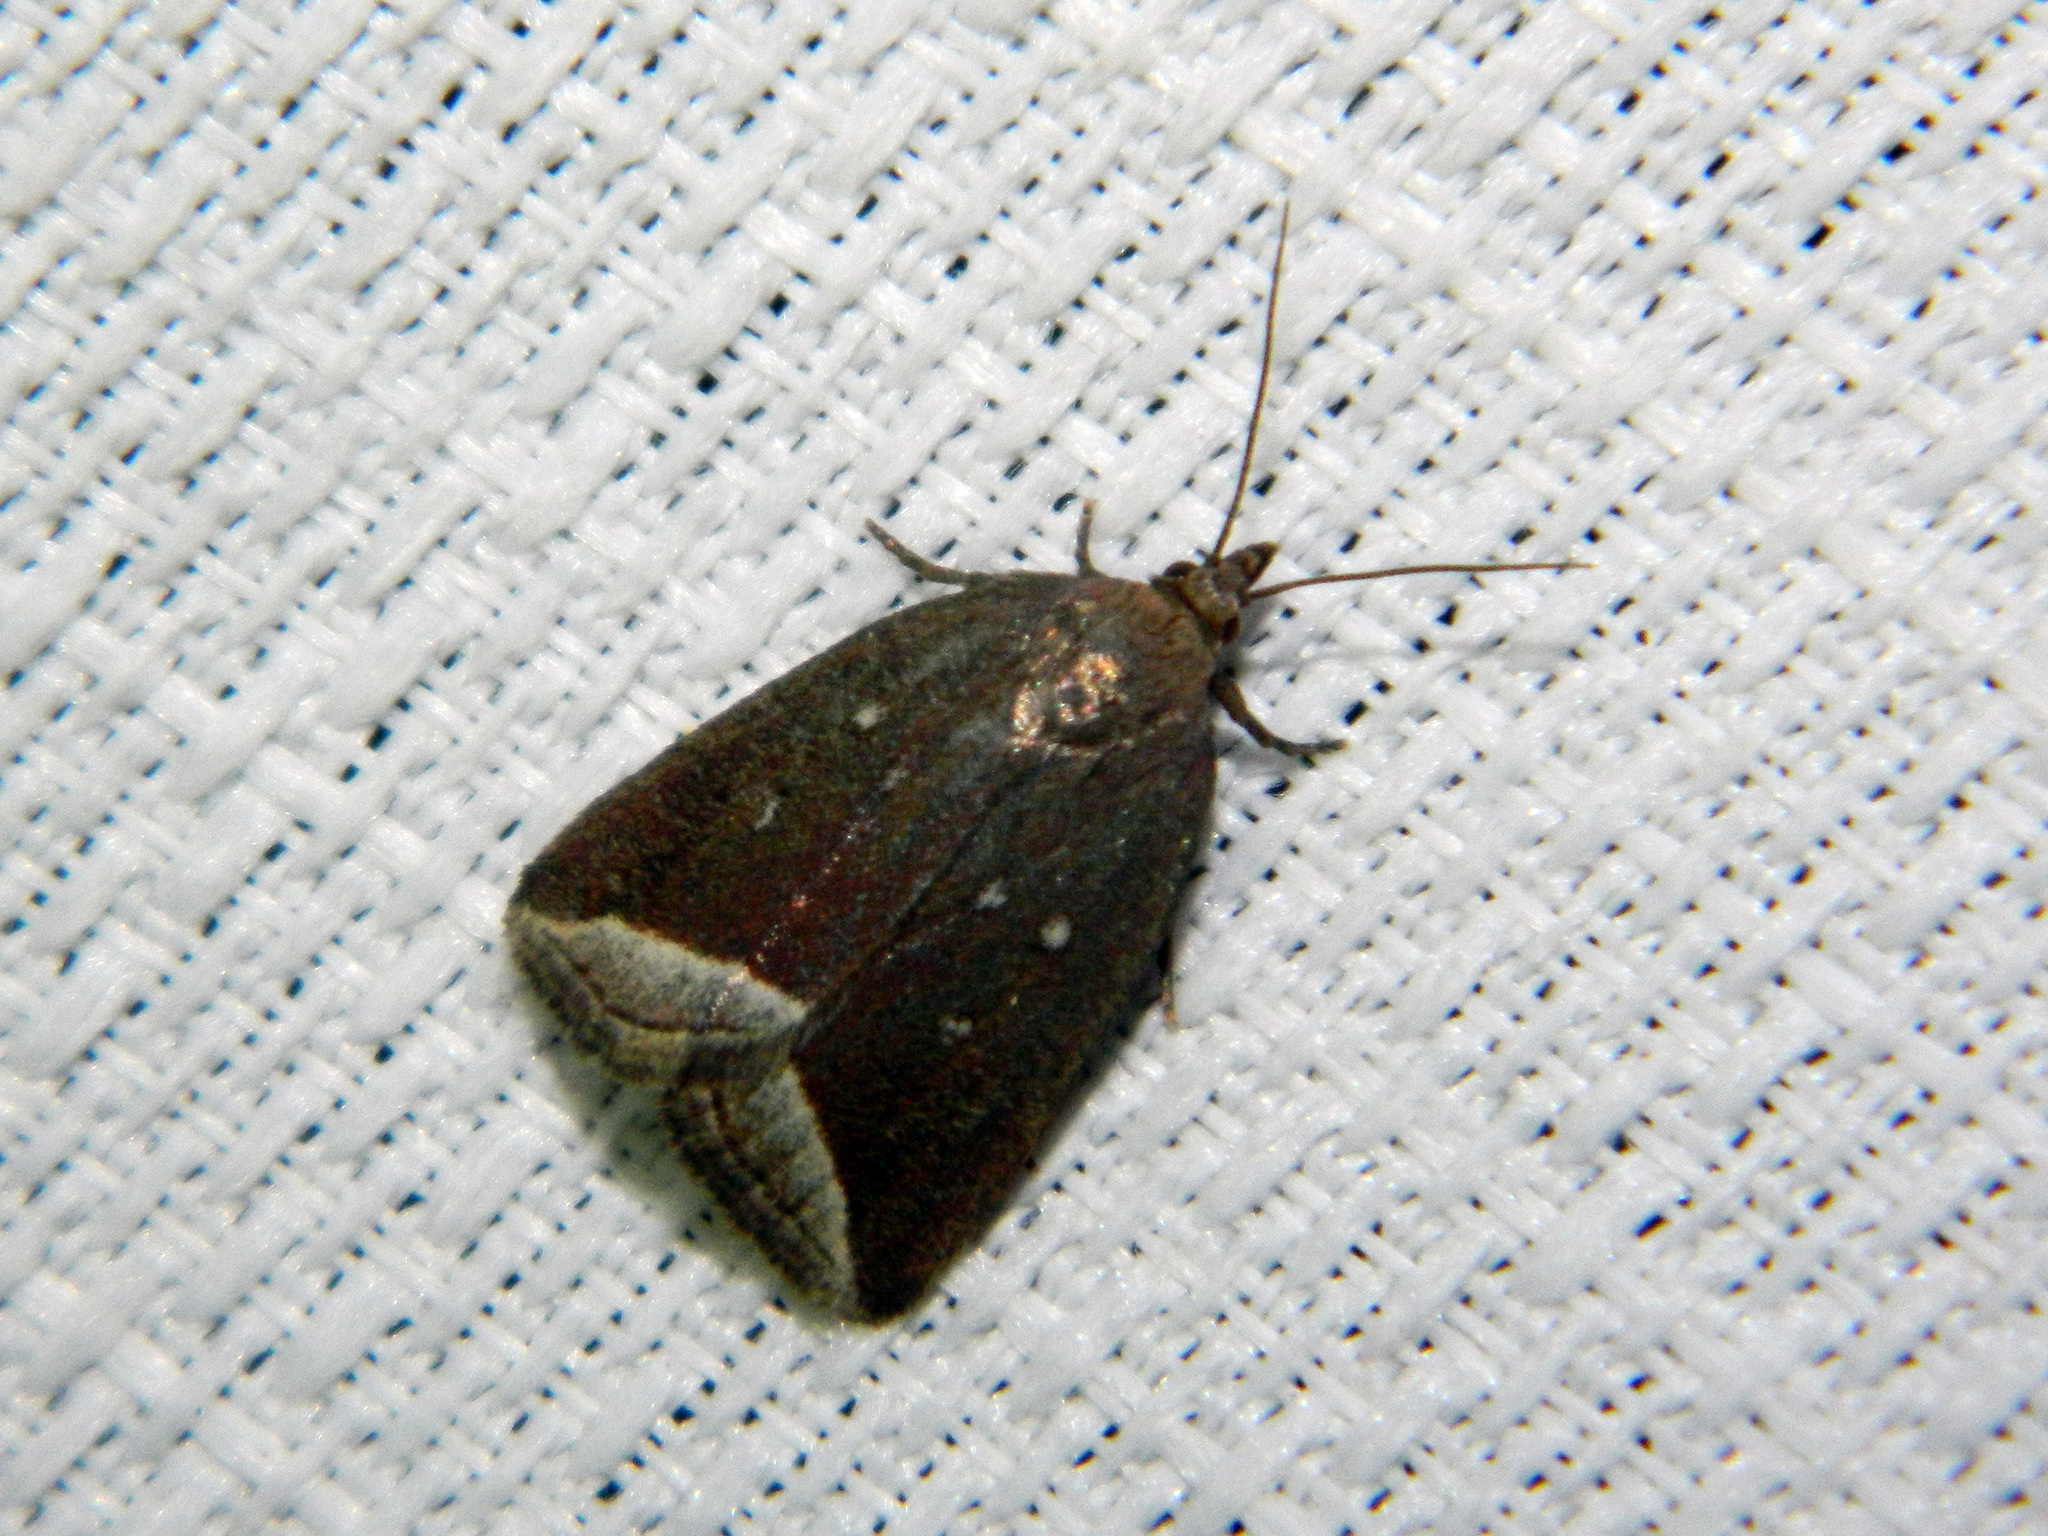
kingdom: Animalia
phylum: Arthropoda
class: Insecta
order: Lepidoptera
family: Erebidae
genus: Capis
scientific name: Capis curvata
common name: Curved halter moth
